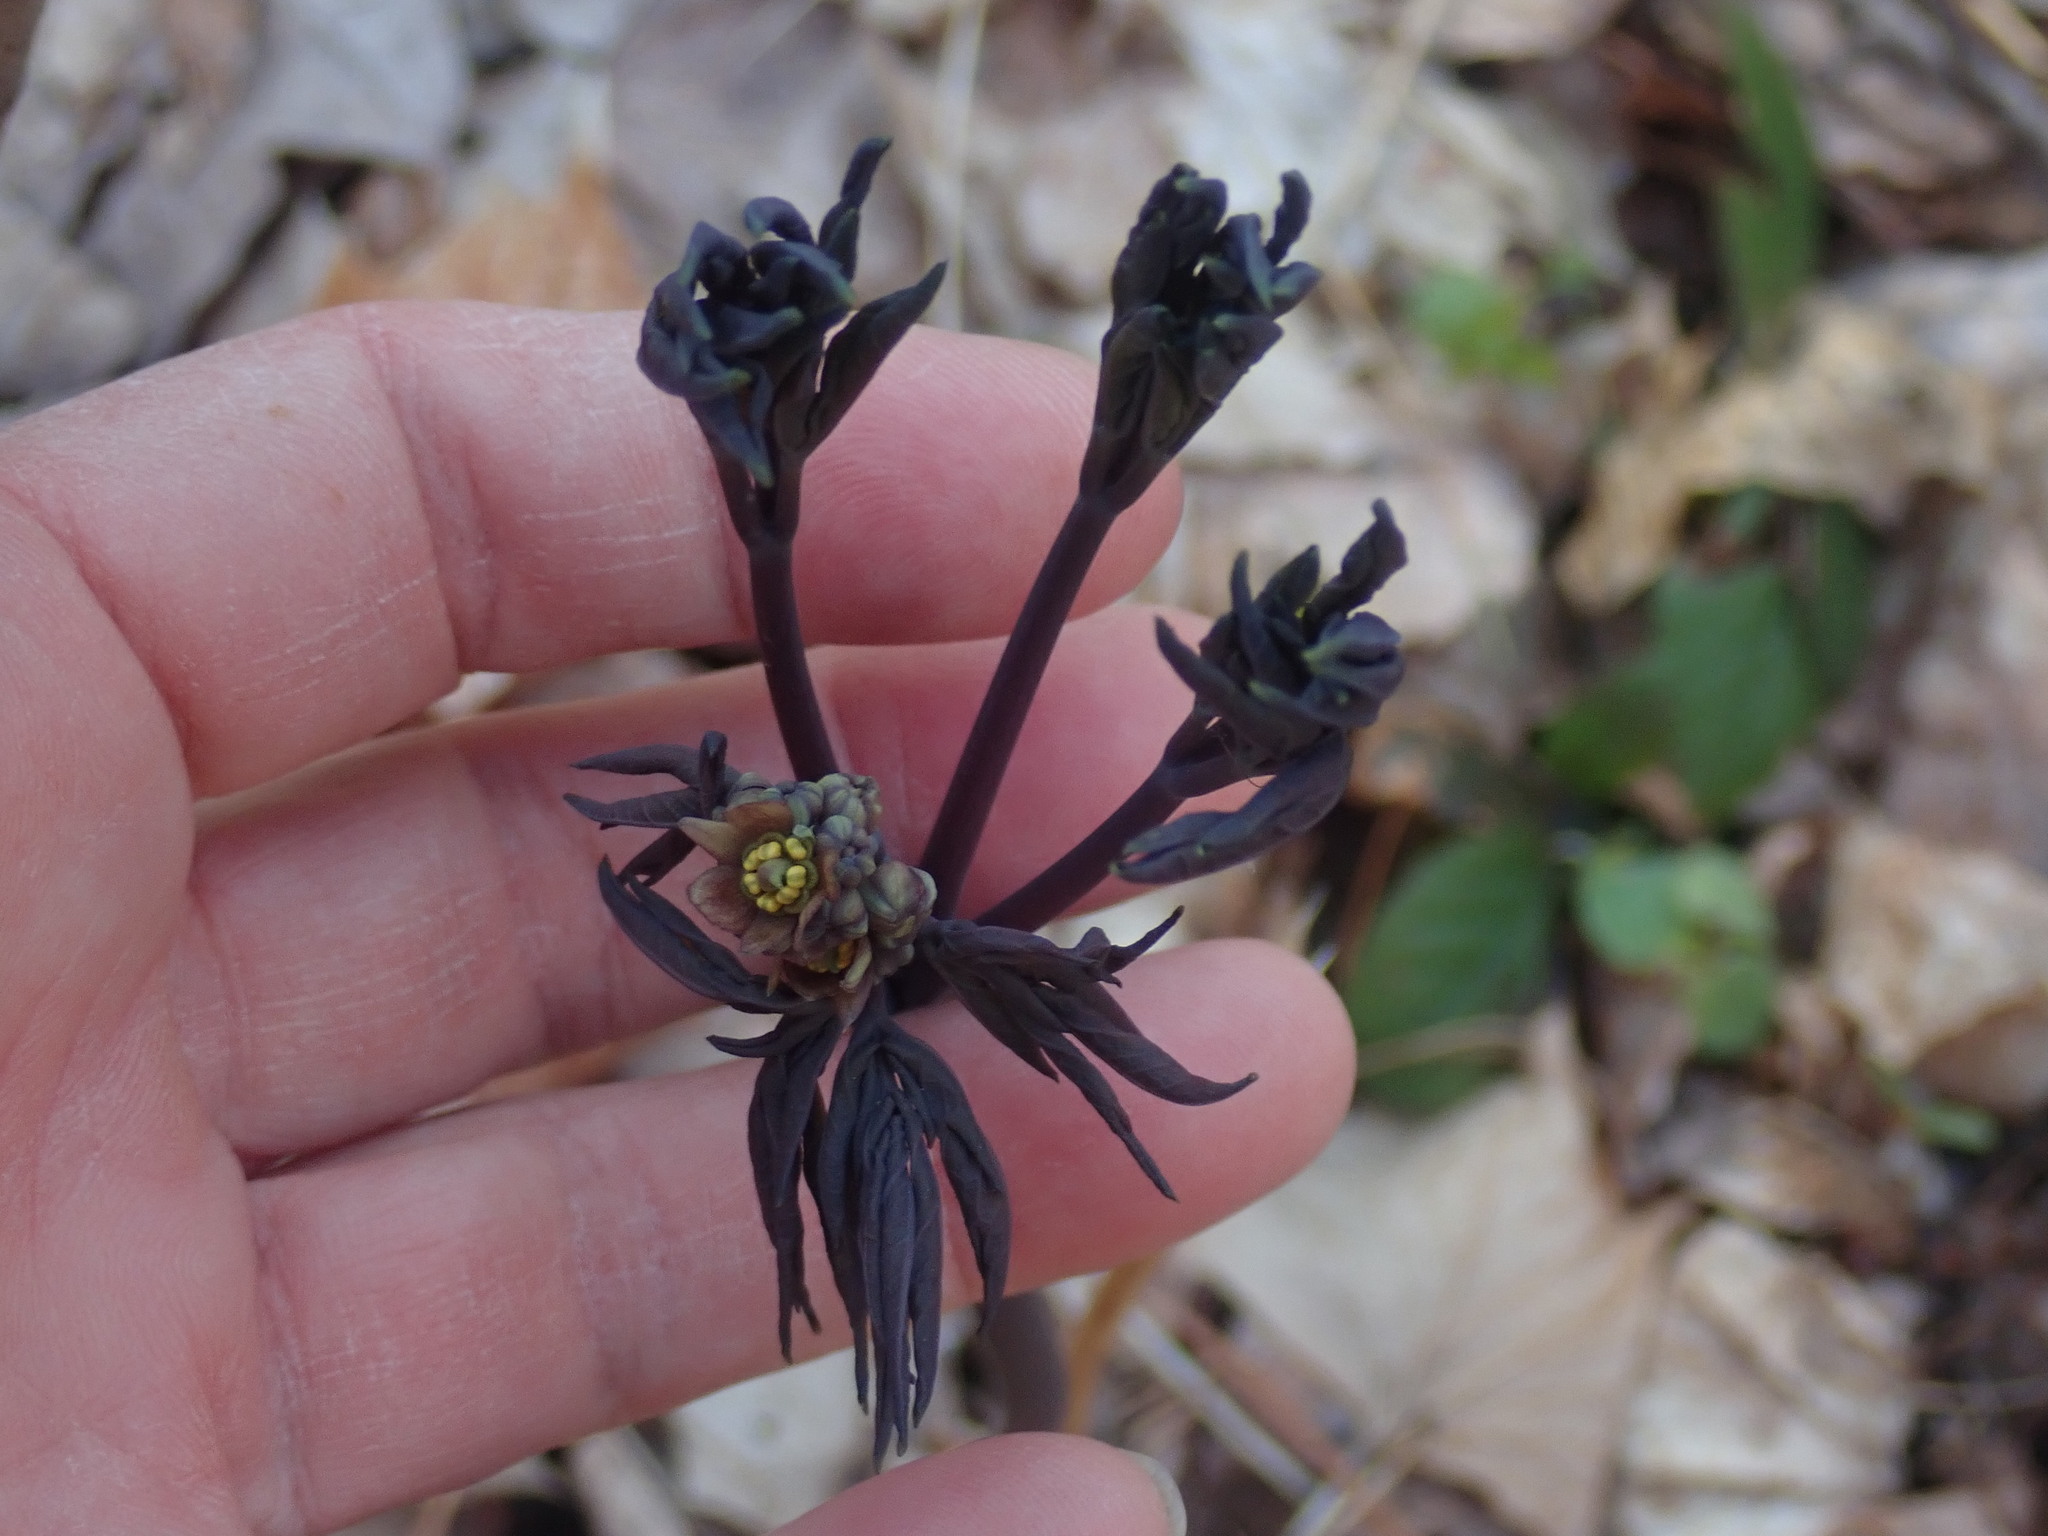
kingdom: Plantae
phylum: Tracheophyta
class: Magnoliopsida
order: Ranunculales
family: Berberidaceae
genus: Caulophyllum
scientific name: Caulophyllum giganteum
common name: Blue cohosh
